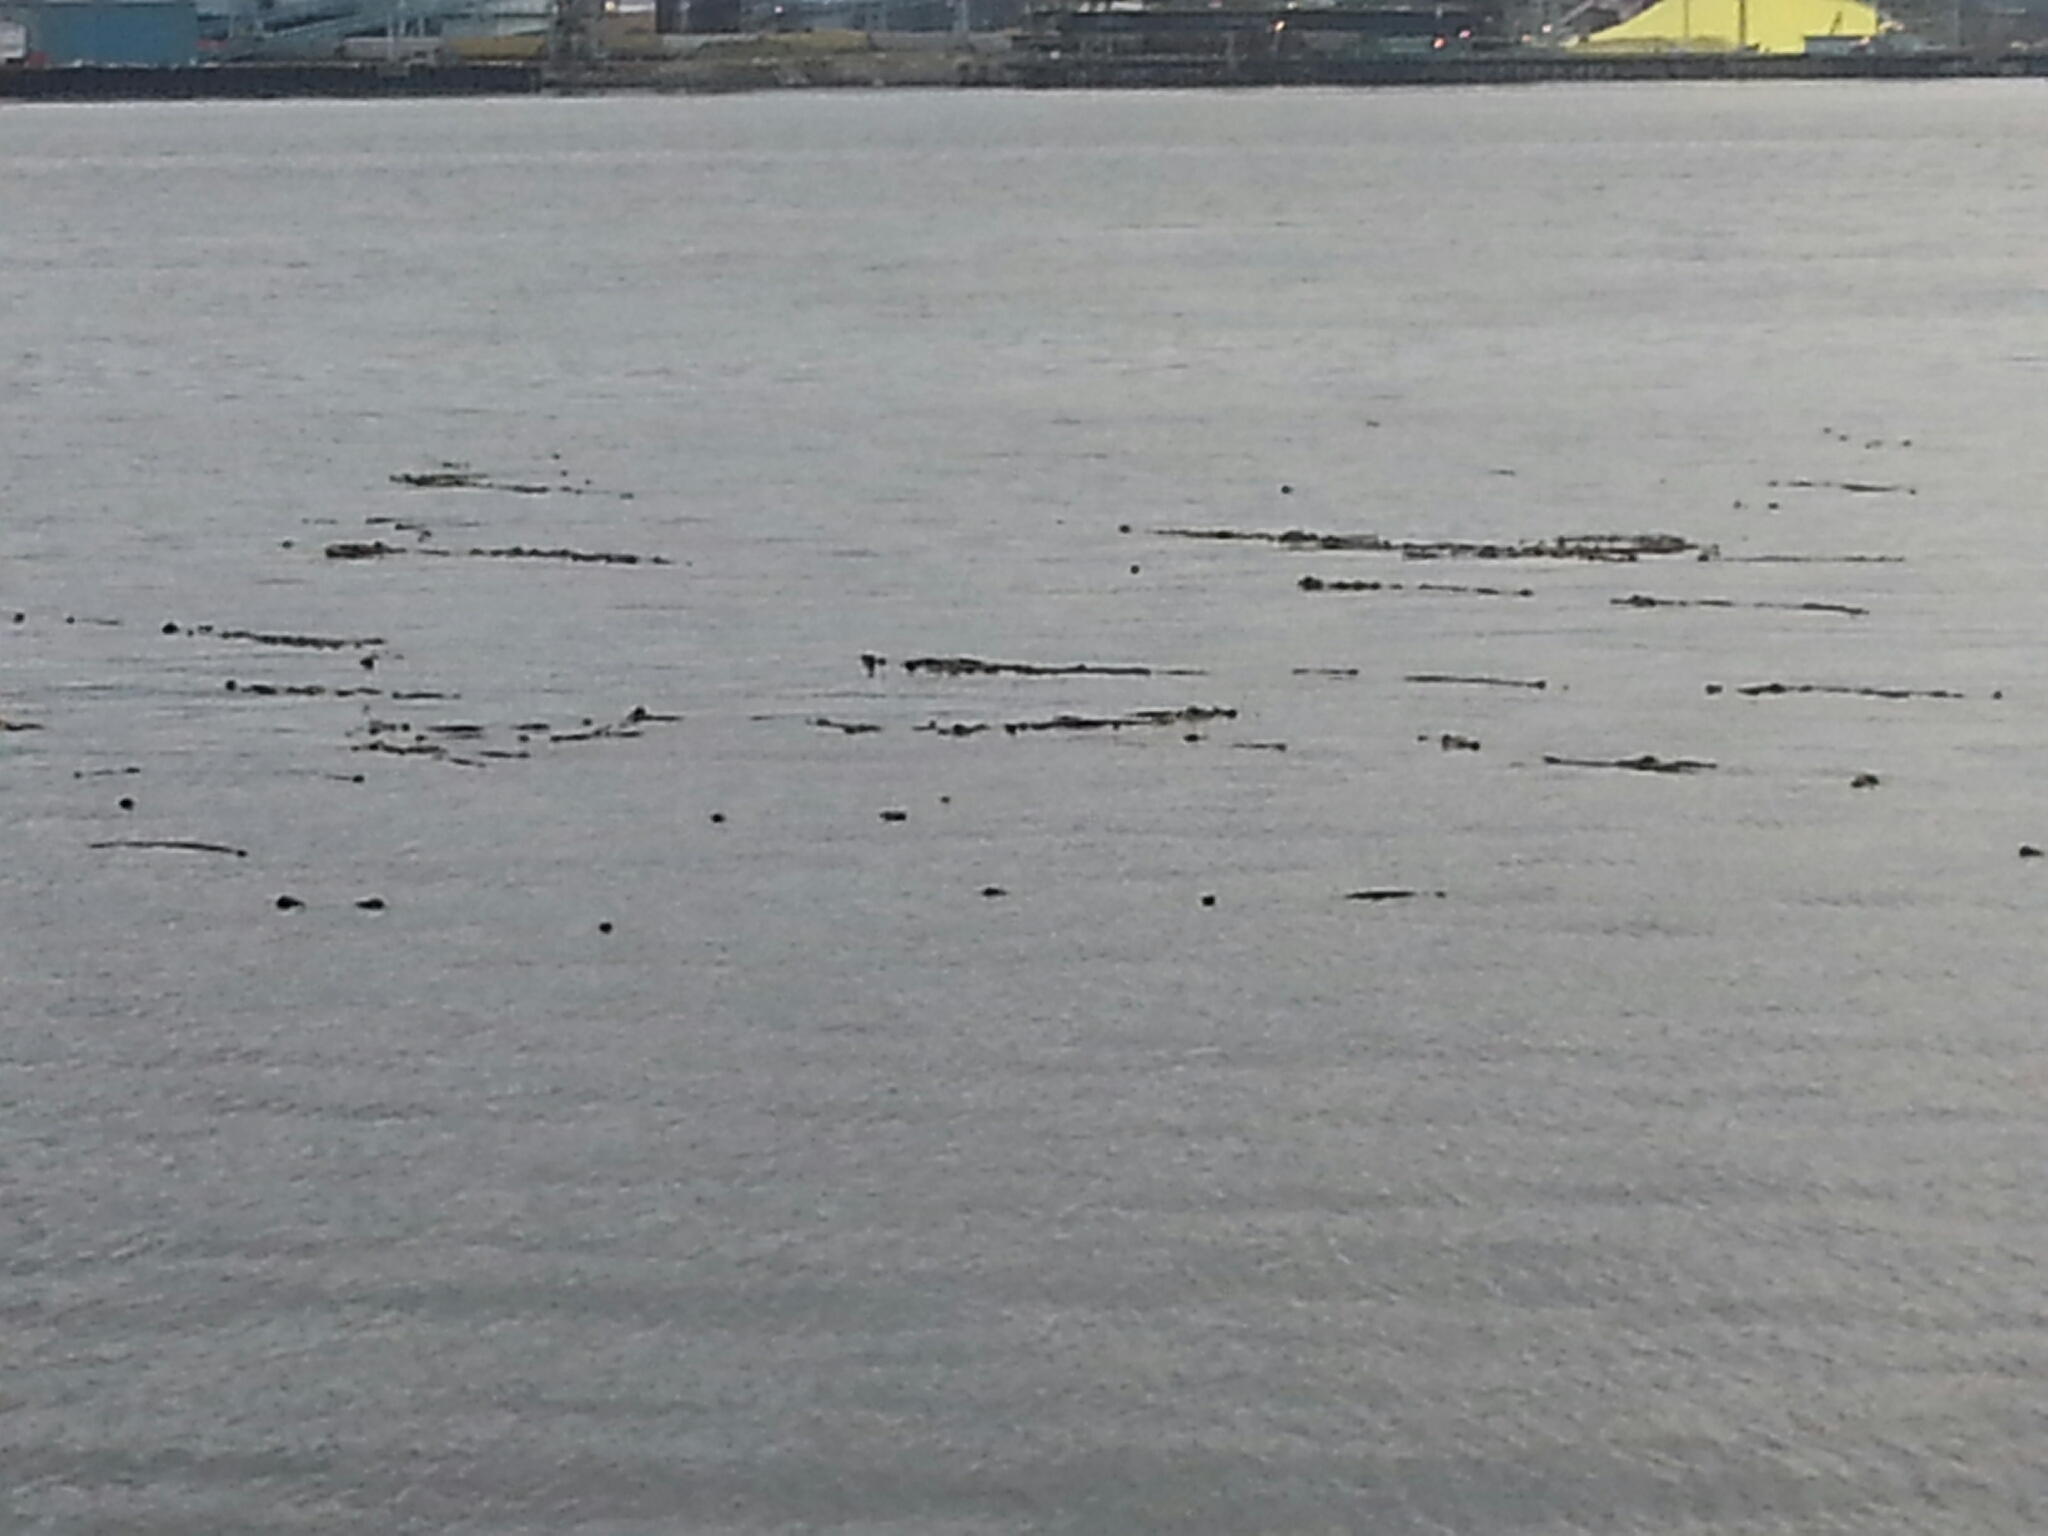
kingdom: Chromista
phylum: Ochrophyta
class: Phaeophyceae
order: Laminariales
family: Laminariaceae
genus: Nereocystis
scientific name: Nereocystis luetkeana
